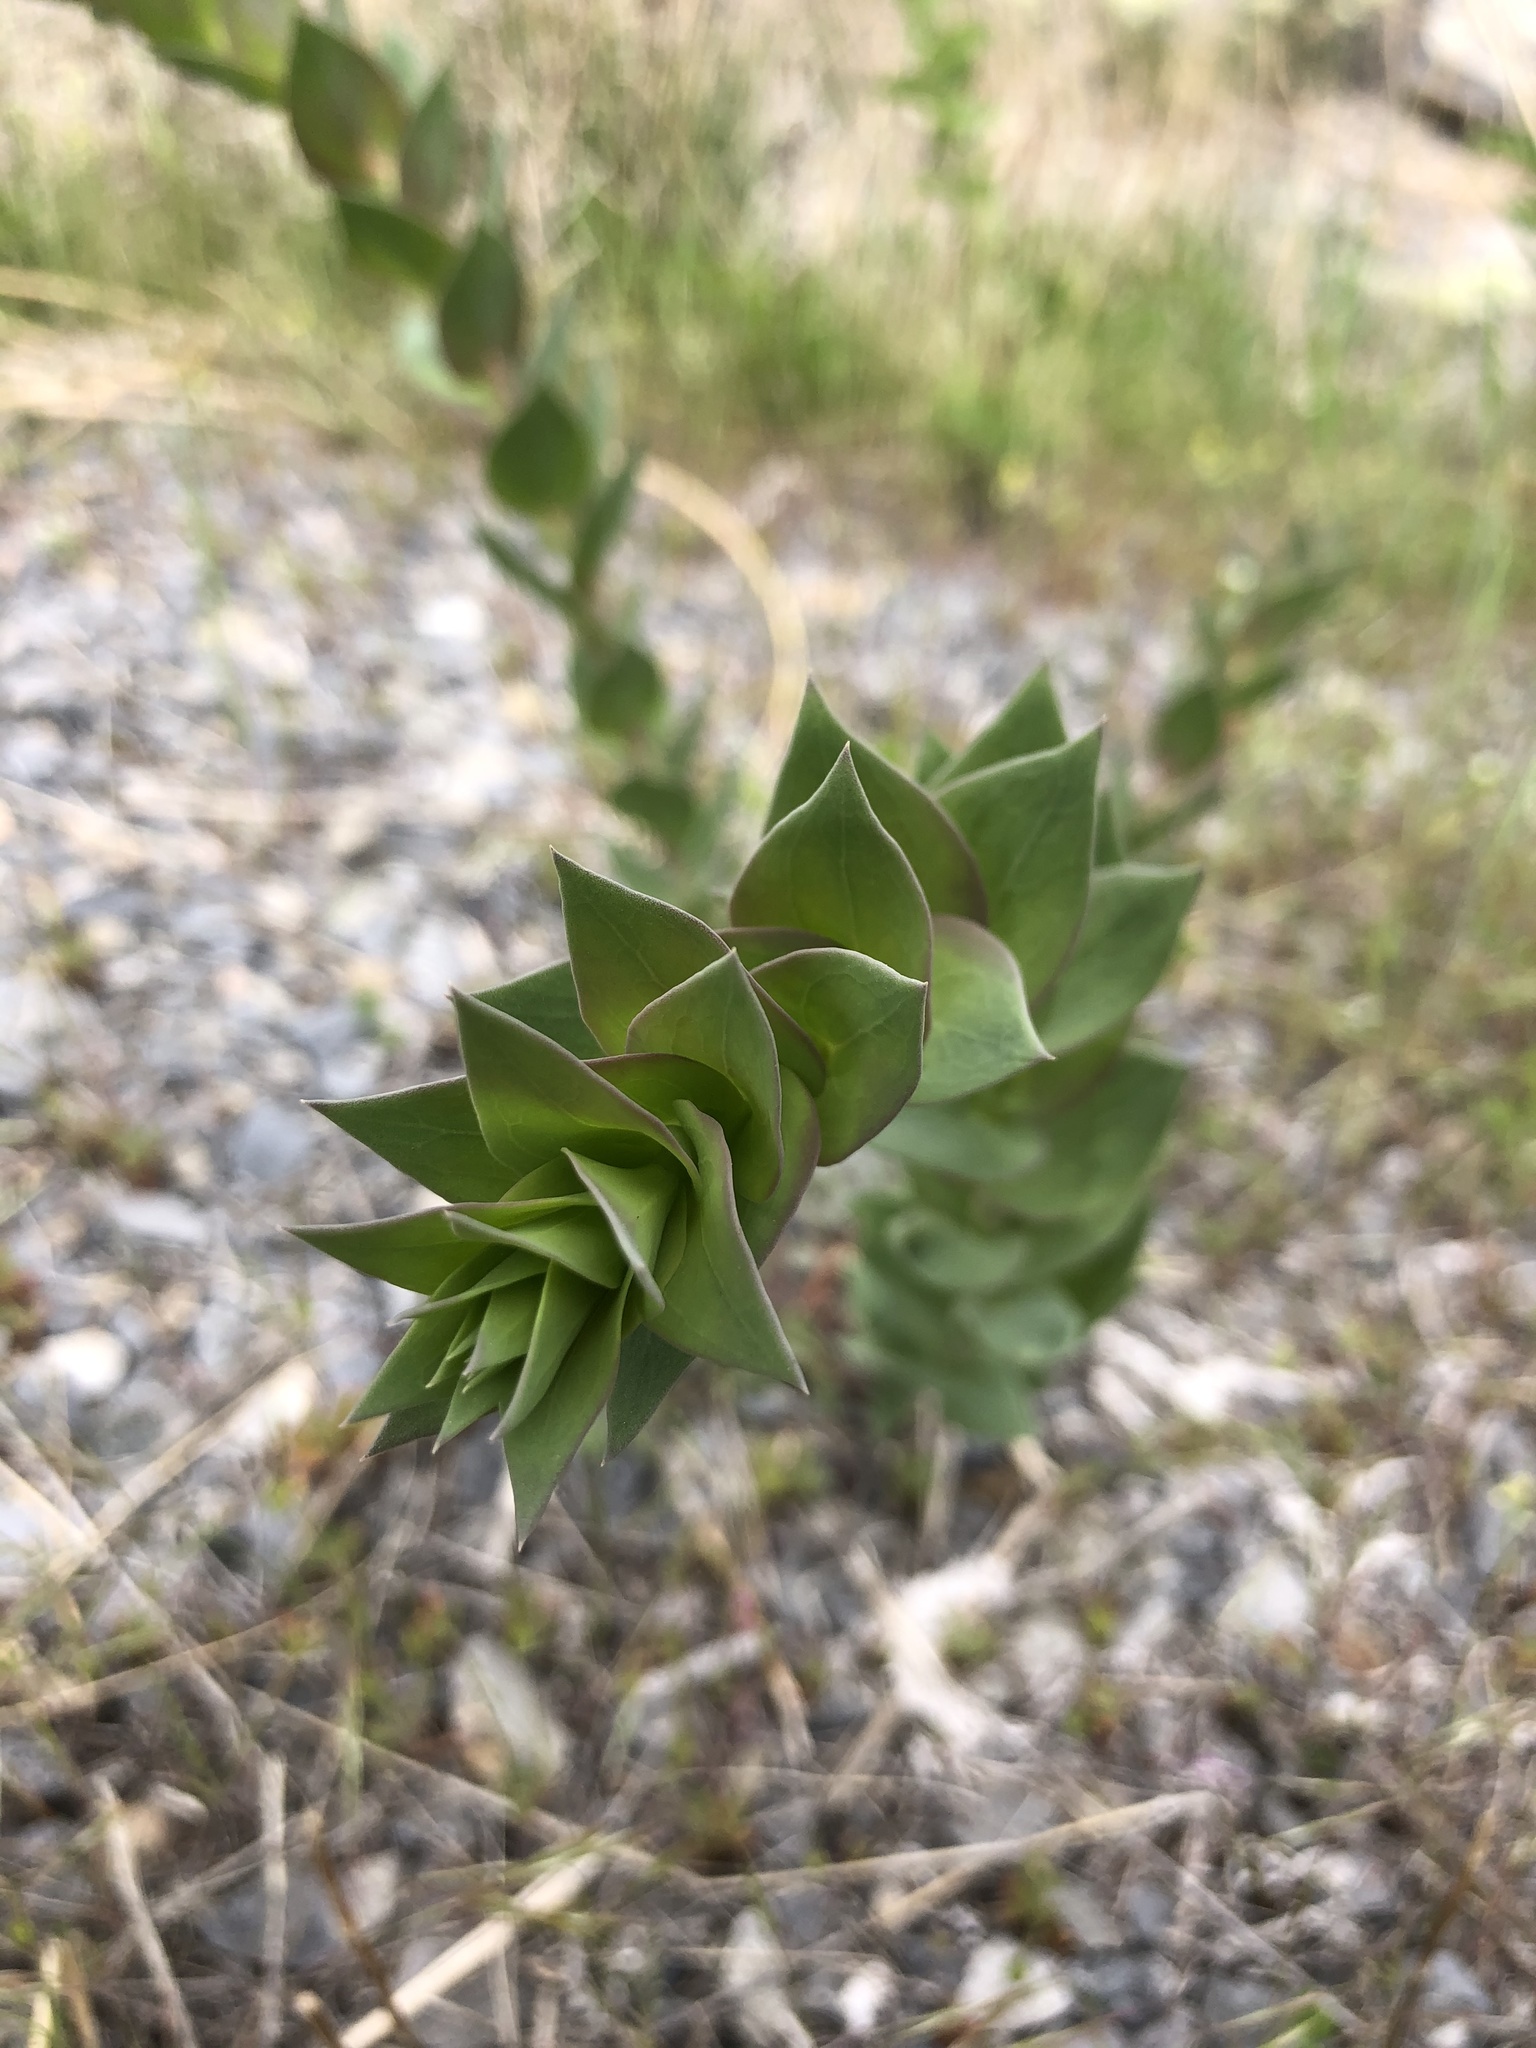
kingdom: Plantae
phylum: Tracheophyta
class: Magnoliopsida
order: Lamiales
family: Plantaginaceae
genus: Linaria
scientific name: Linaria dalmatica
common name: Dalmatian toadflax
